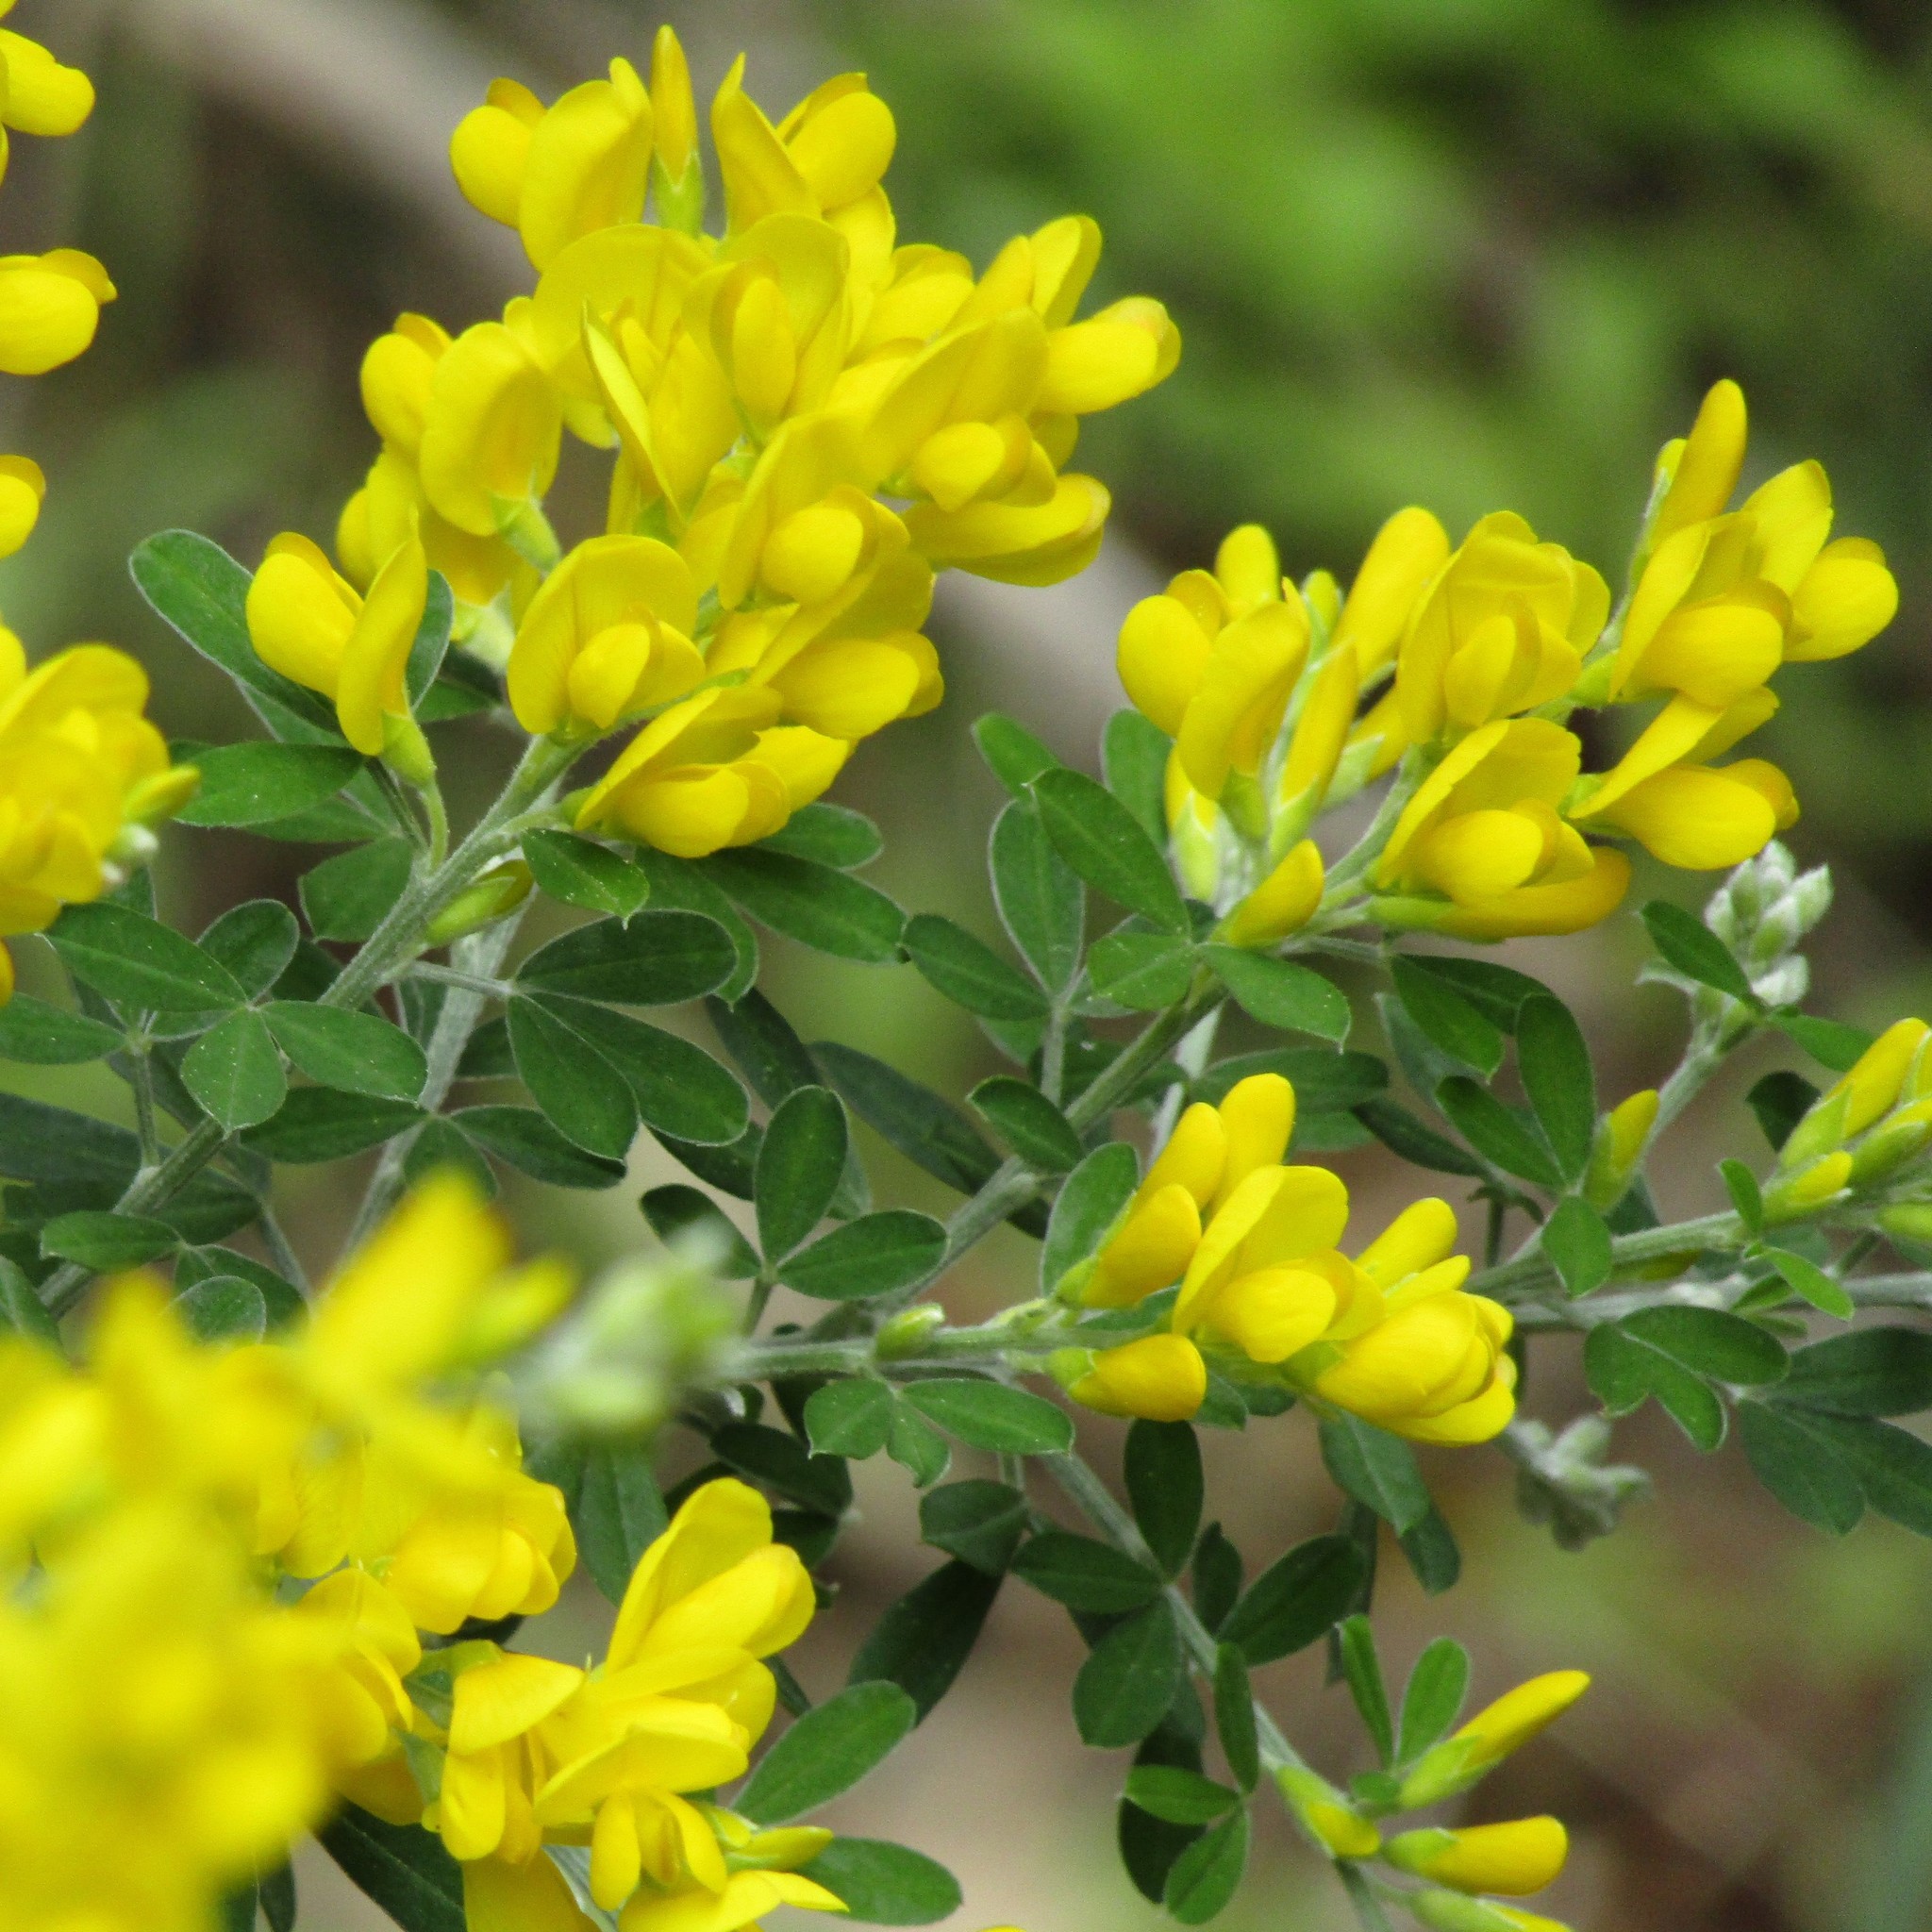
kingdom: Plantae
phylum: Tracheophyta
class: Magnoliopsida
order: Fabales
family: Fabaceae
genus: Genista
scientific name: Genista stenopetala
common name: Leafy broom
